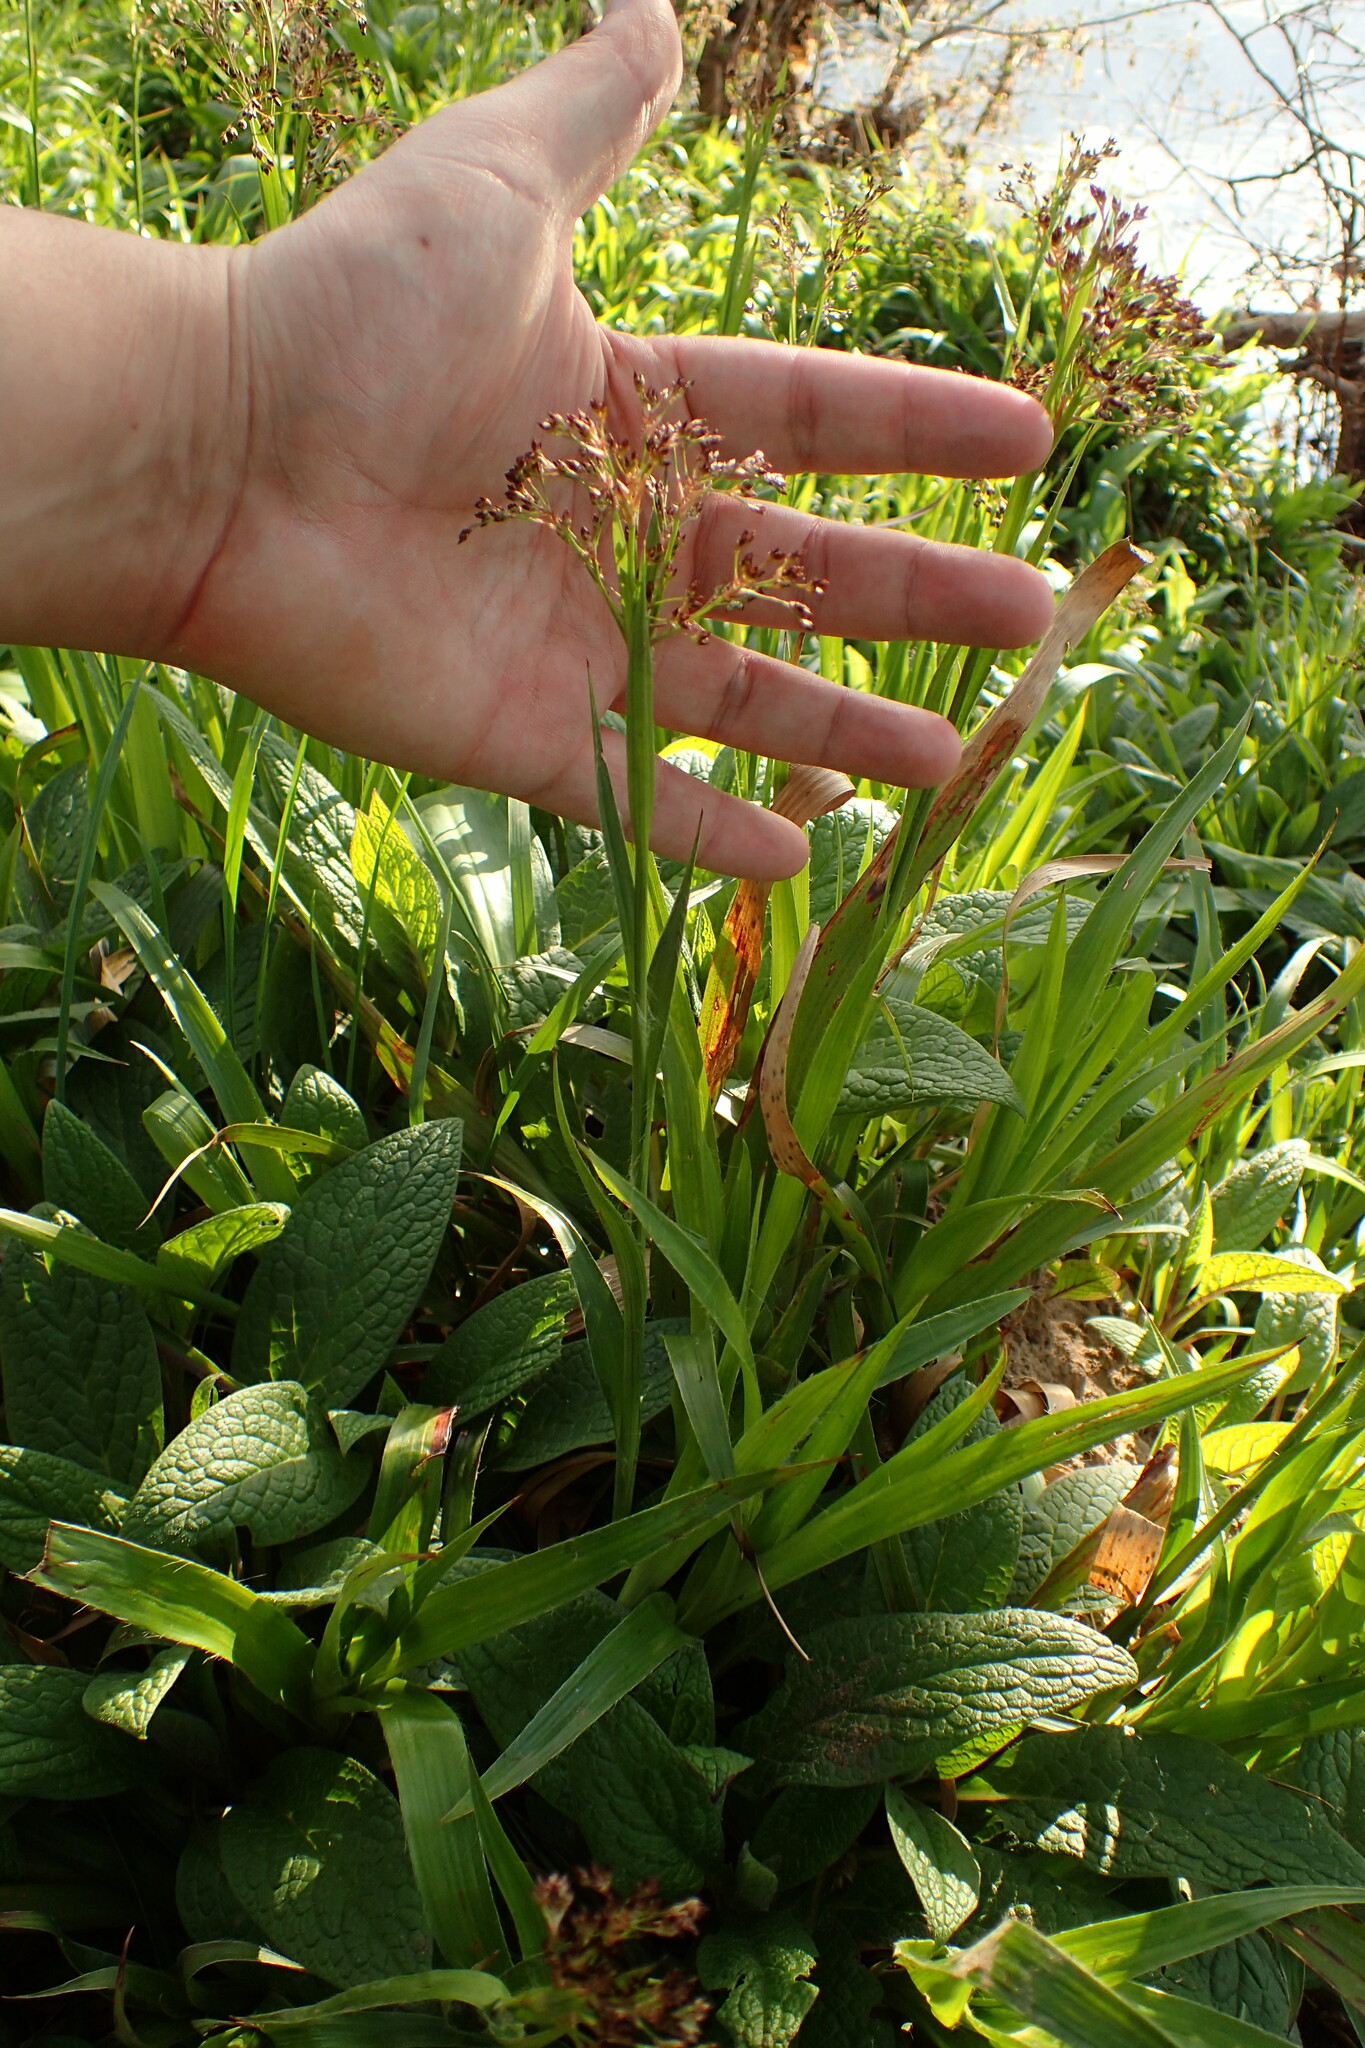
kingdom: Plantae
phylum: Tracheophyta
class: Liliopsida
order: Poales
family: Juncaceae
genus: Luzula
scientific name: Luzula sylvatica
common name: Great wood-rush
